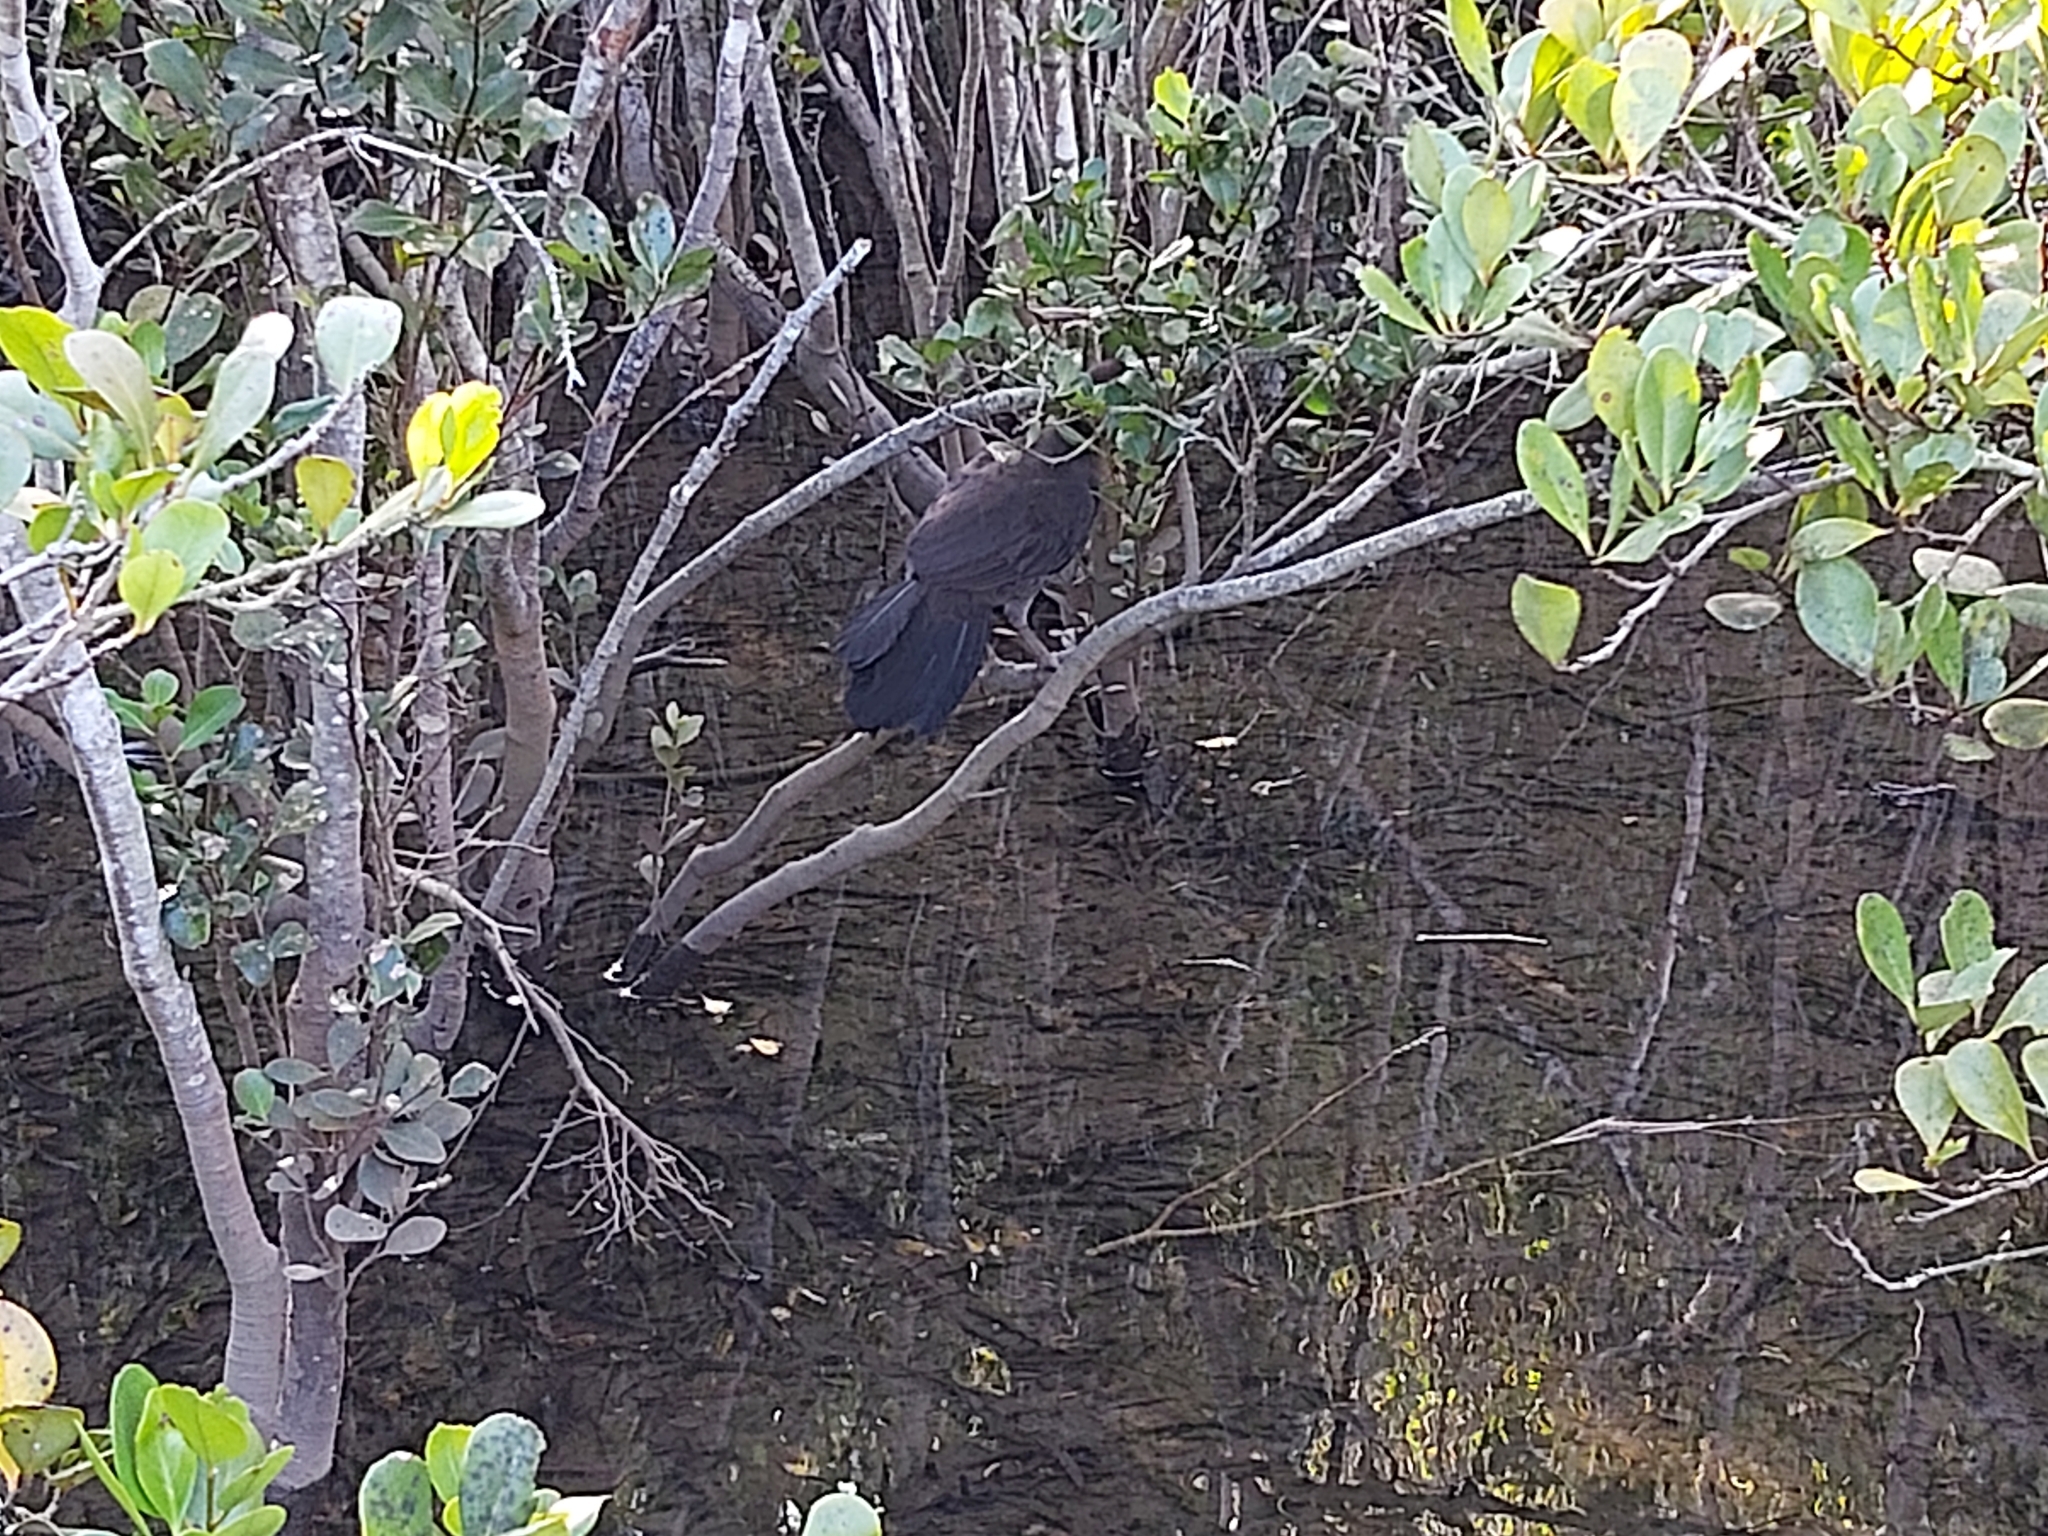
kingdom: Animalia
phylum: Chordata
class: Aves
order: Galliformes
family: Megapodiidae
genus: Alectura
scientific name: Alectura lathami
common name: Australian brushturkey
